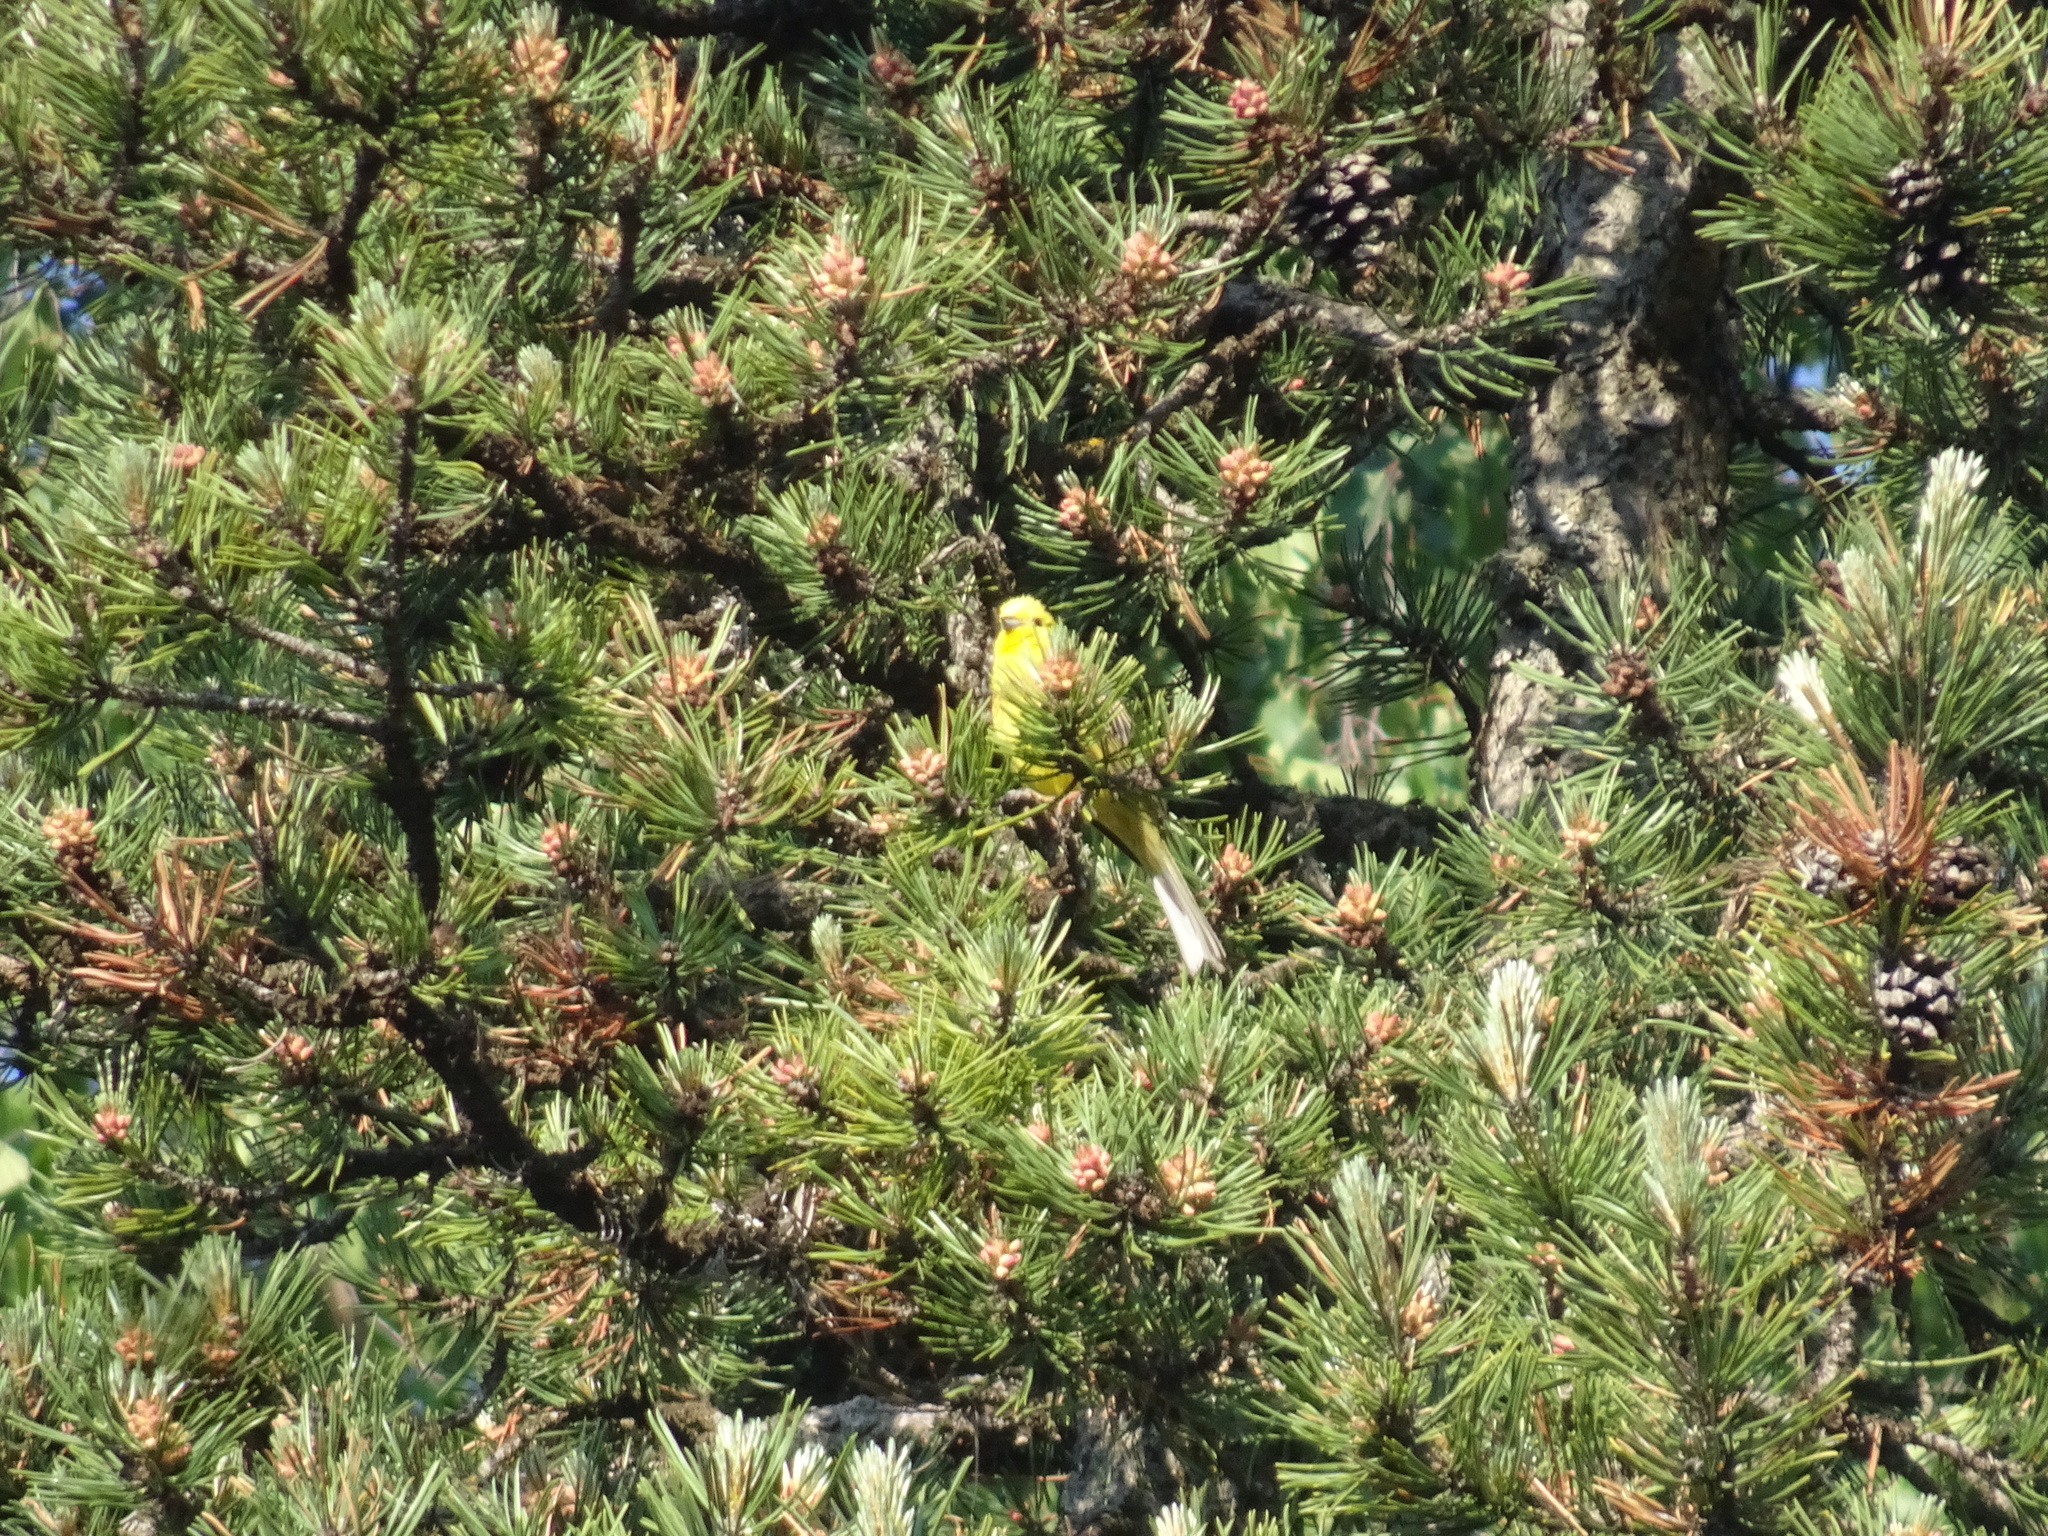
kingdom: Animalia
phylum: Chordata
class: Aves
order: Passeriformes
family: Emberizidae
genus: Emberiza
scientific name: Emberiza citrinella
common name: Yellowhammer
